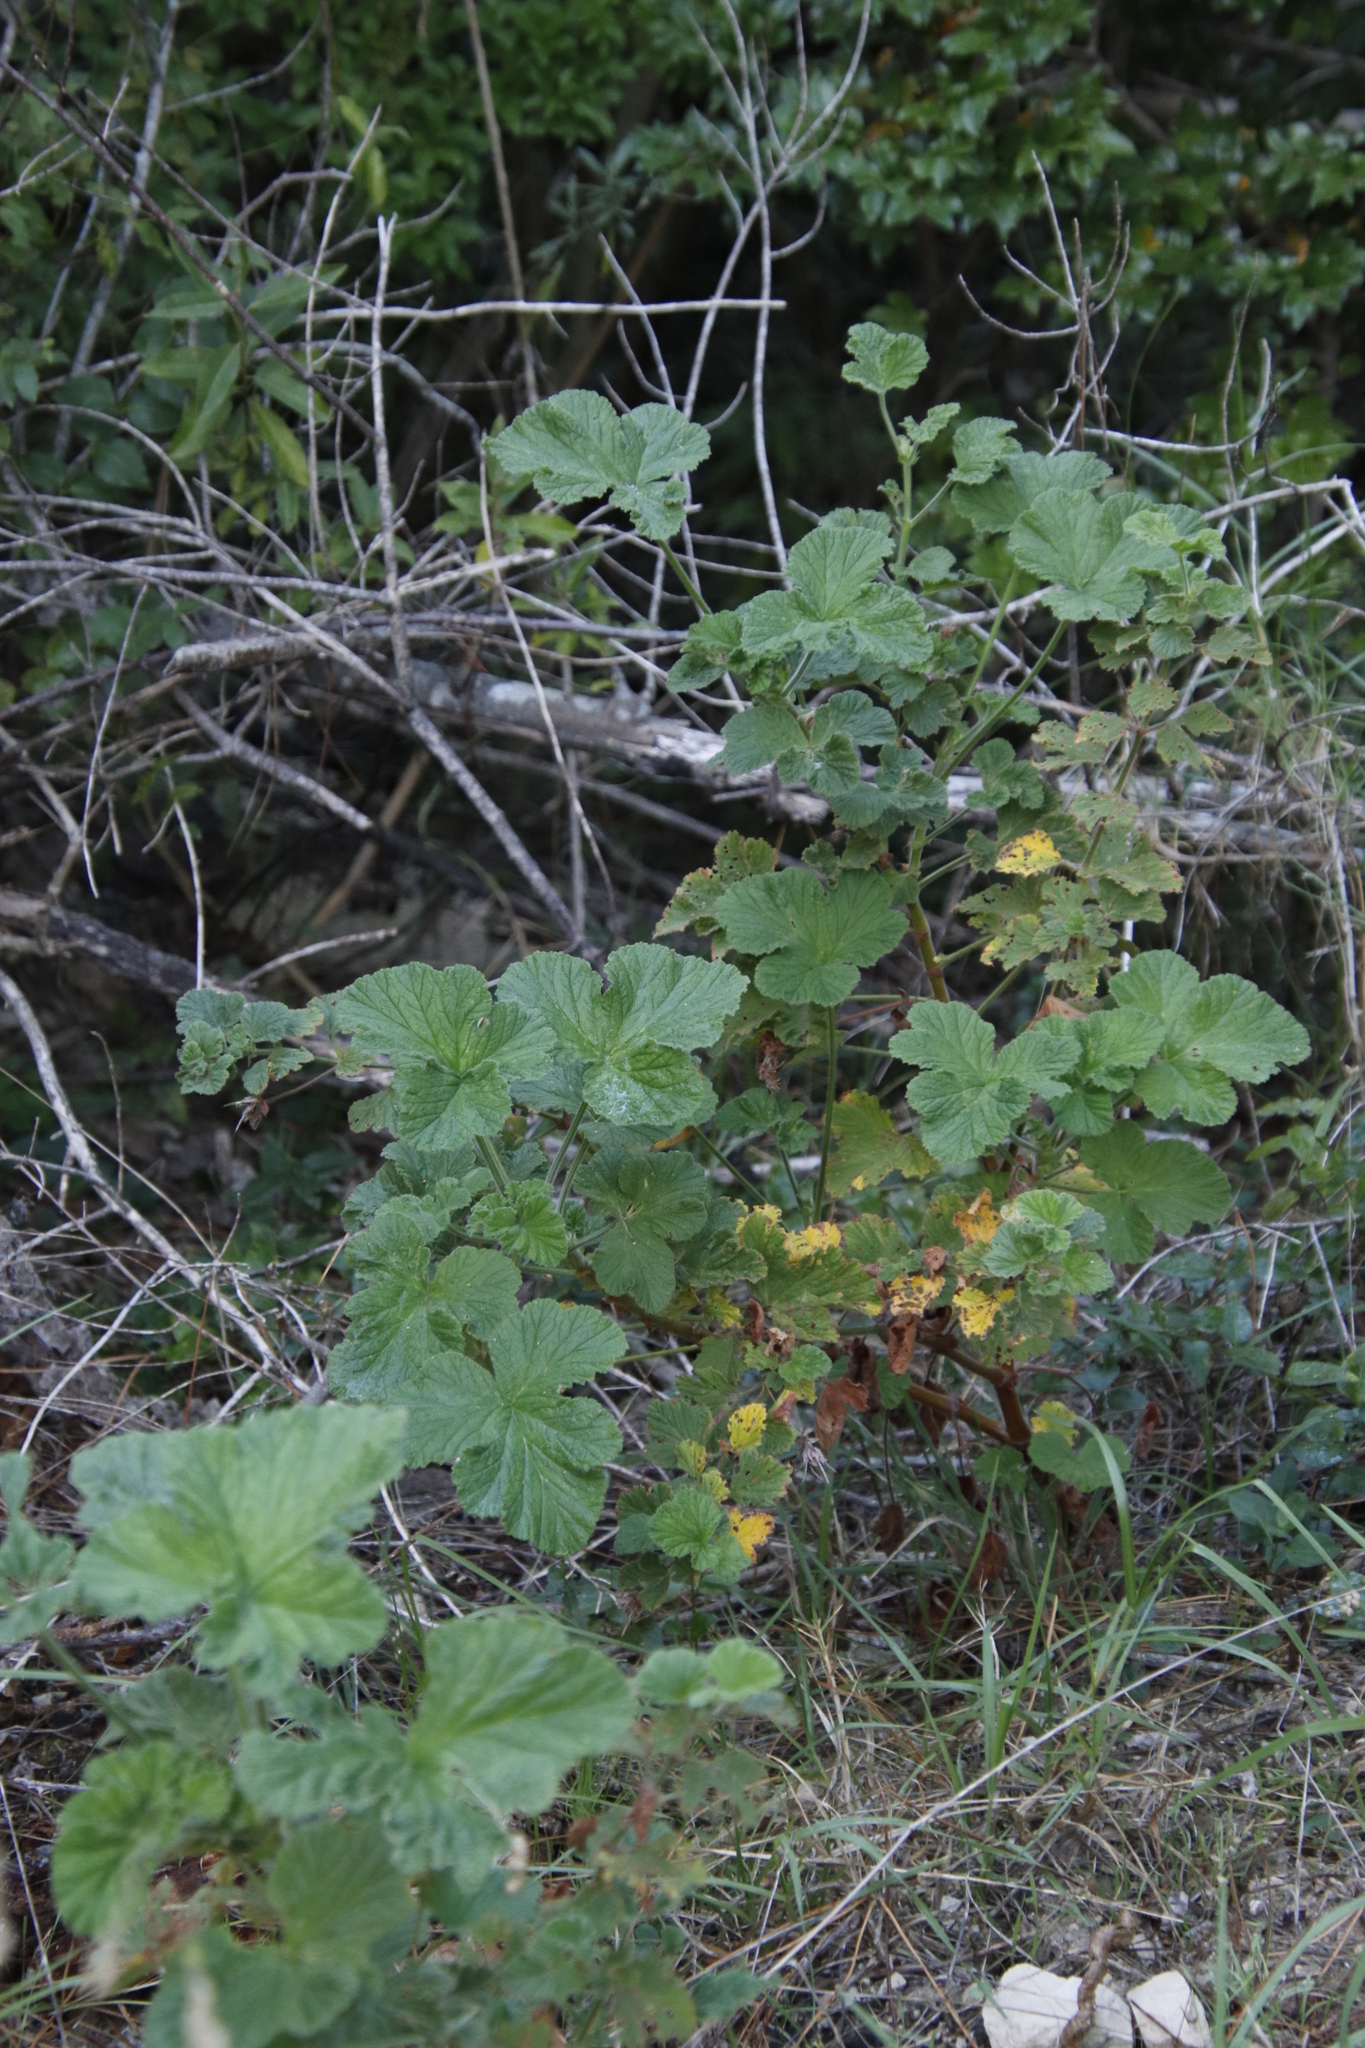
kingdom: Plantae
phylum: Tracheophyta
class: Magnoliopsida
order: Geraniales
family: Geraniaceae
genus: Pelargonium
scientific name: Pelargonium vitifolium
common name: Grapeleaf geranium
